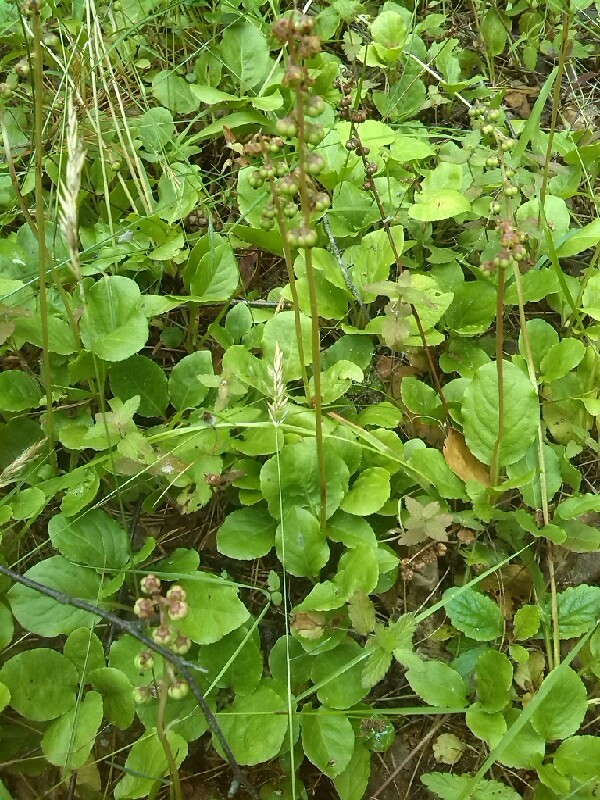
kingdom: Plantae
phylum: Tracheophyta
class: Magnoliopsida
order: Ericales
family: Ericaceae
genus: Pyrola
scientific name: Pyrola minor
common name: Common wintergreen
